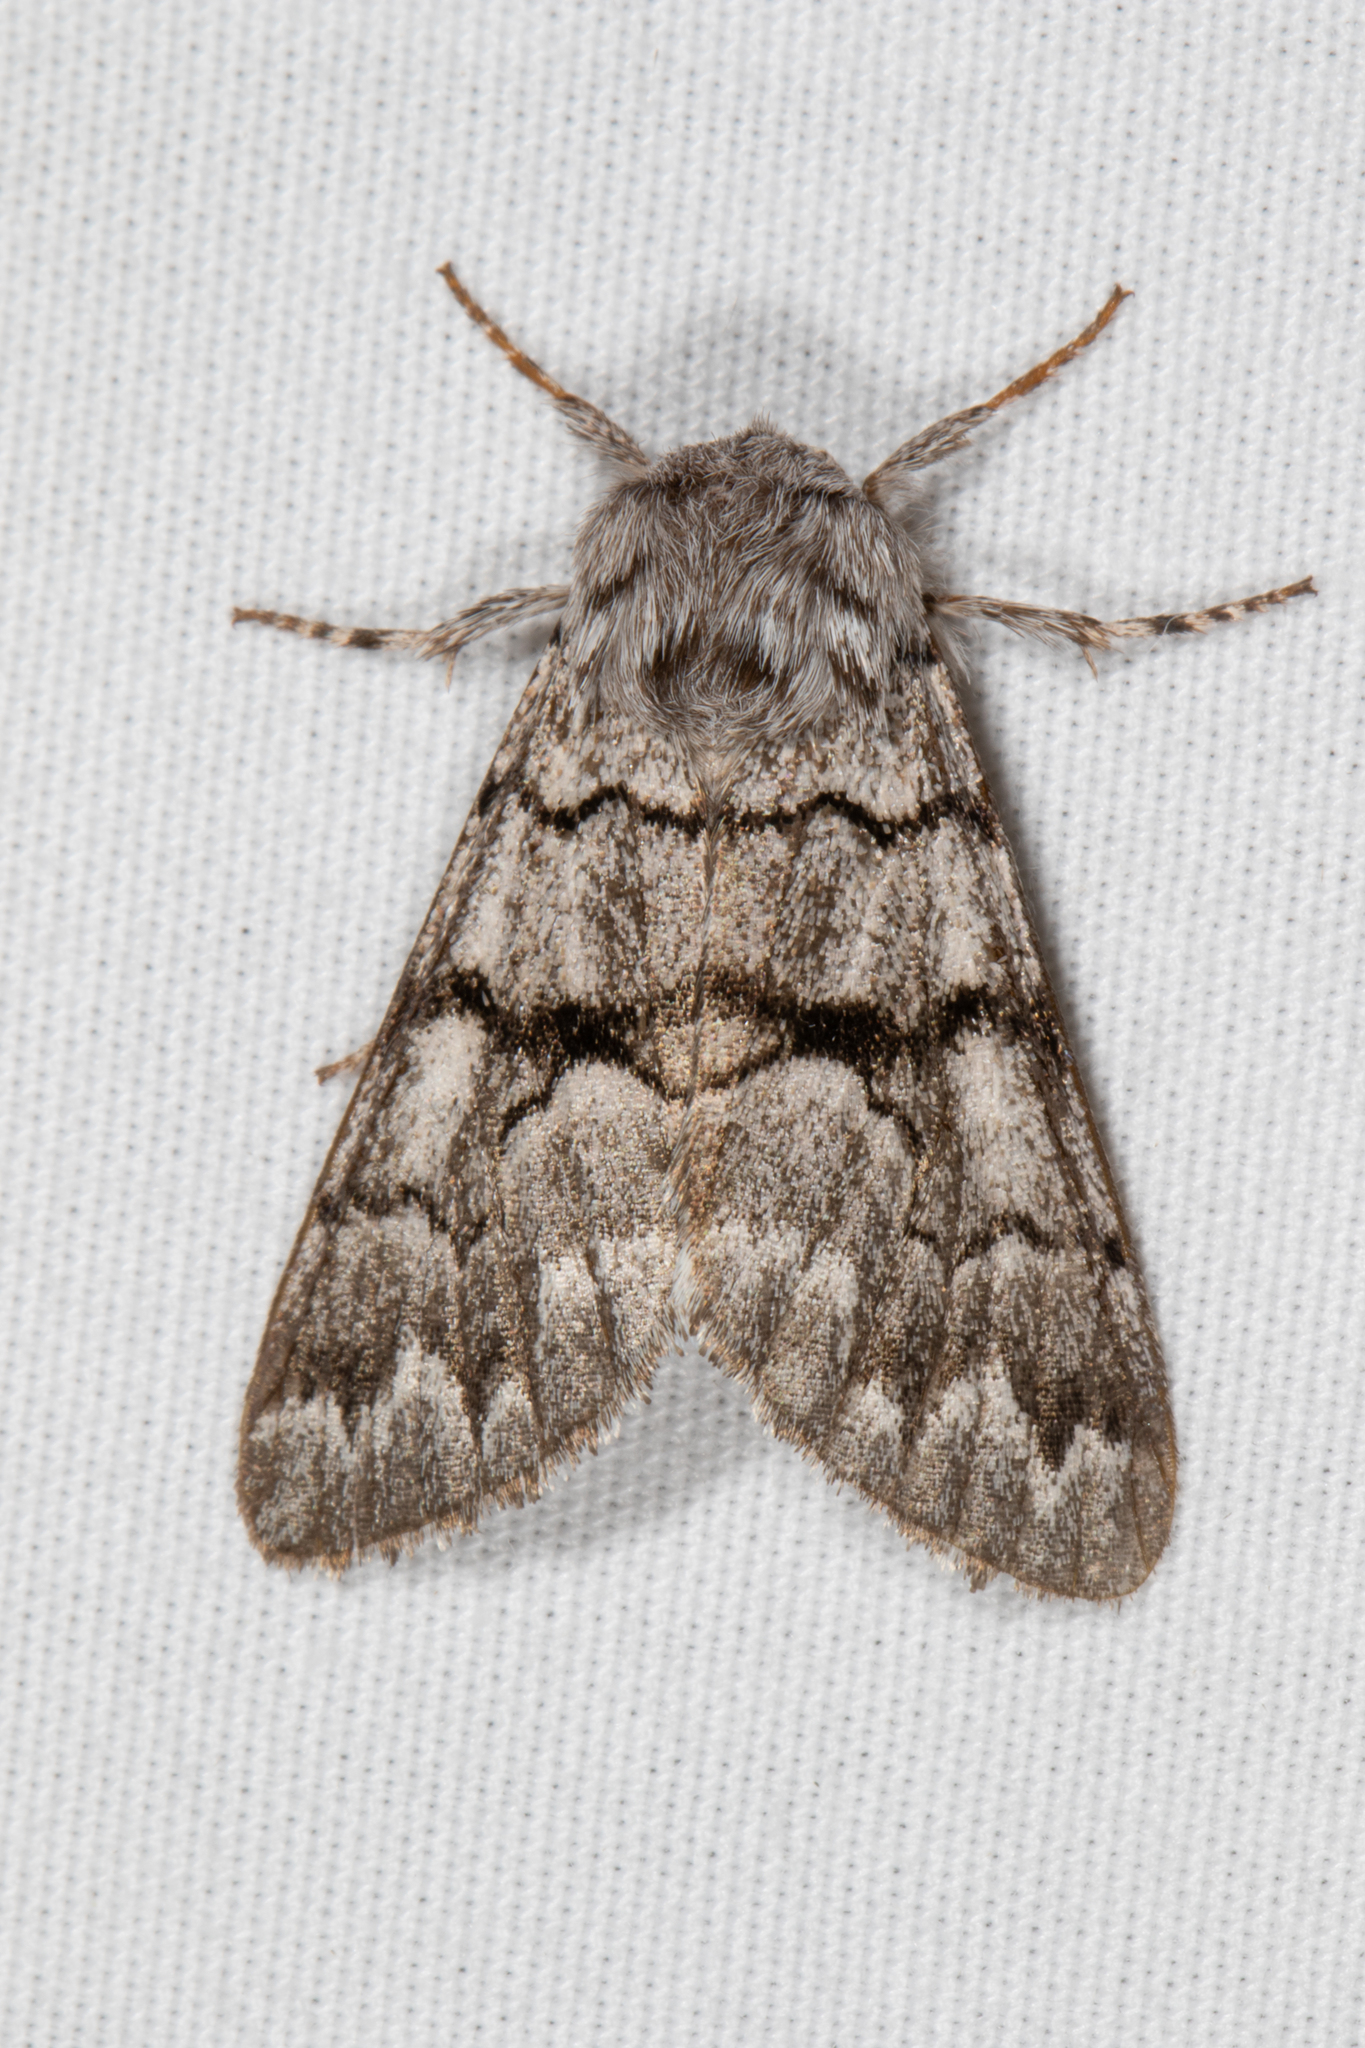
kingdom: Animalia
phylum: Arthropoda
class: Insecta
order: Lepidoptera
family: Noctuidae
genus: Panthea
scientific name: Panthea furcilla
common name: Eastern panthea moth
